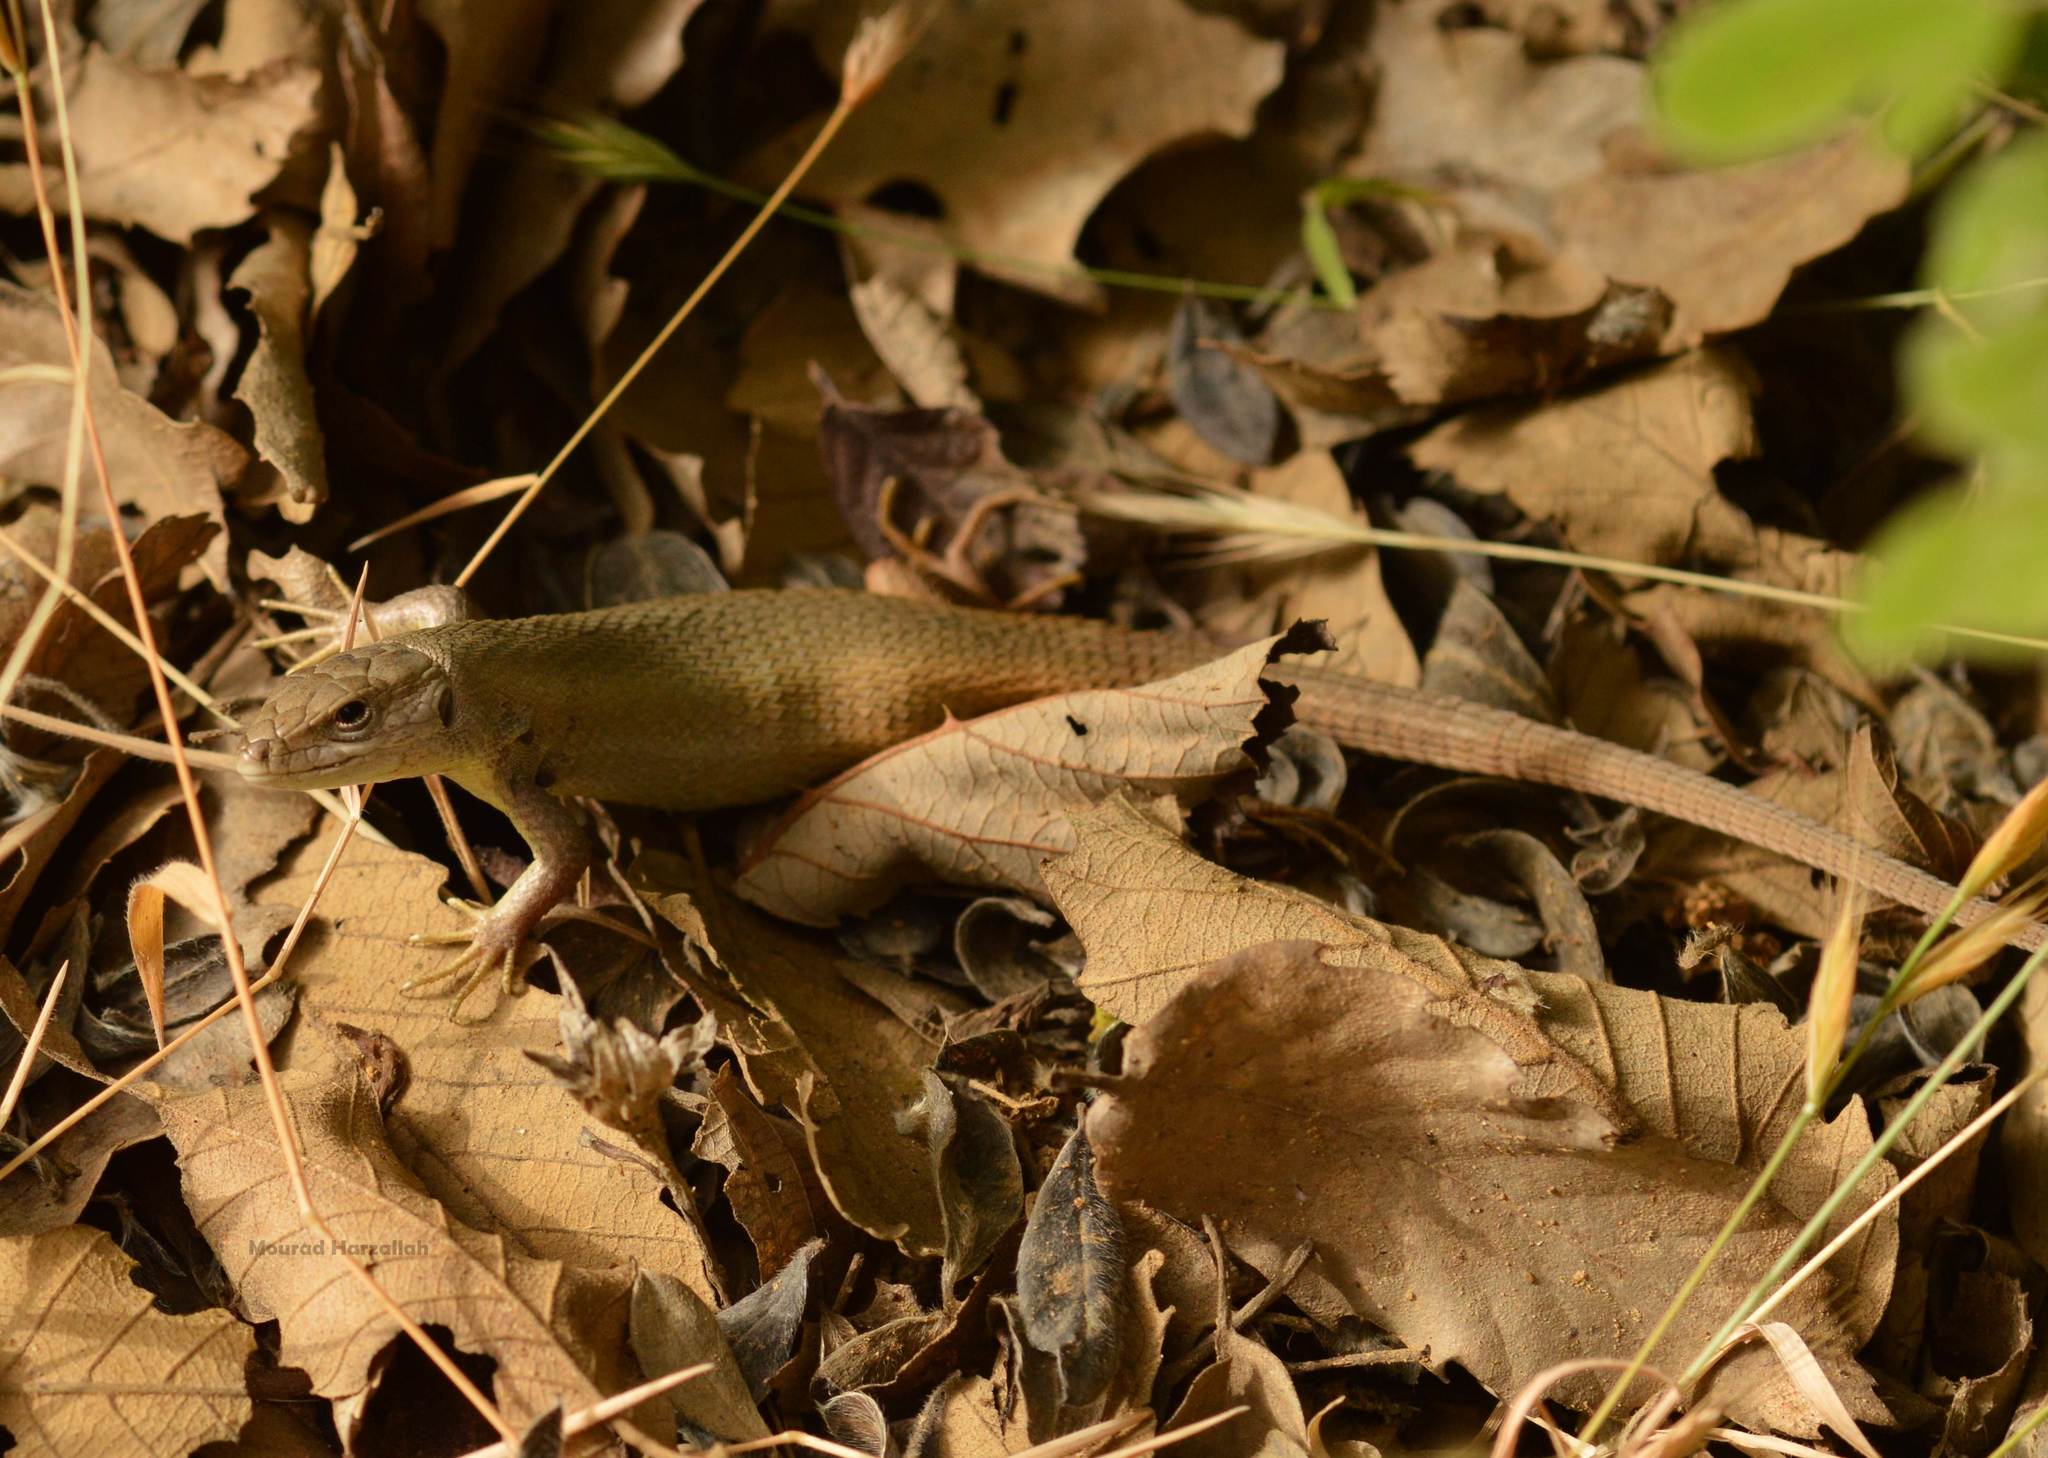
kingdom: Animalia
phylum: Chordata
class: Squamata
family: Lacertidae
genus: Psammodromus
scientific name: Psammodromus algirus
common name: Algerian psammodromus
